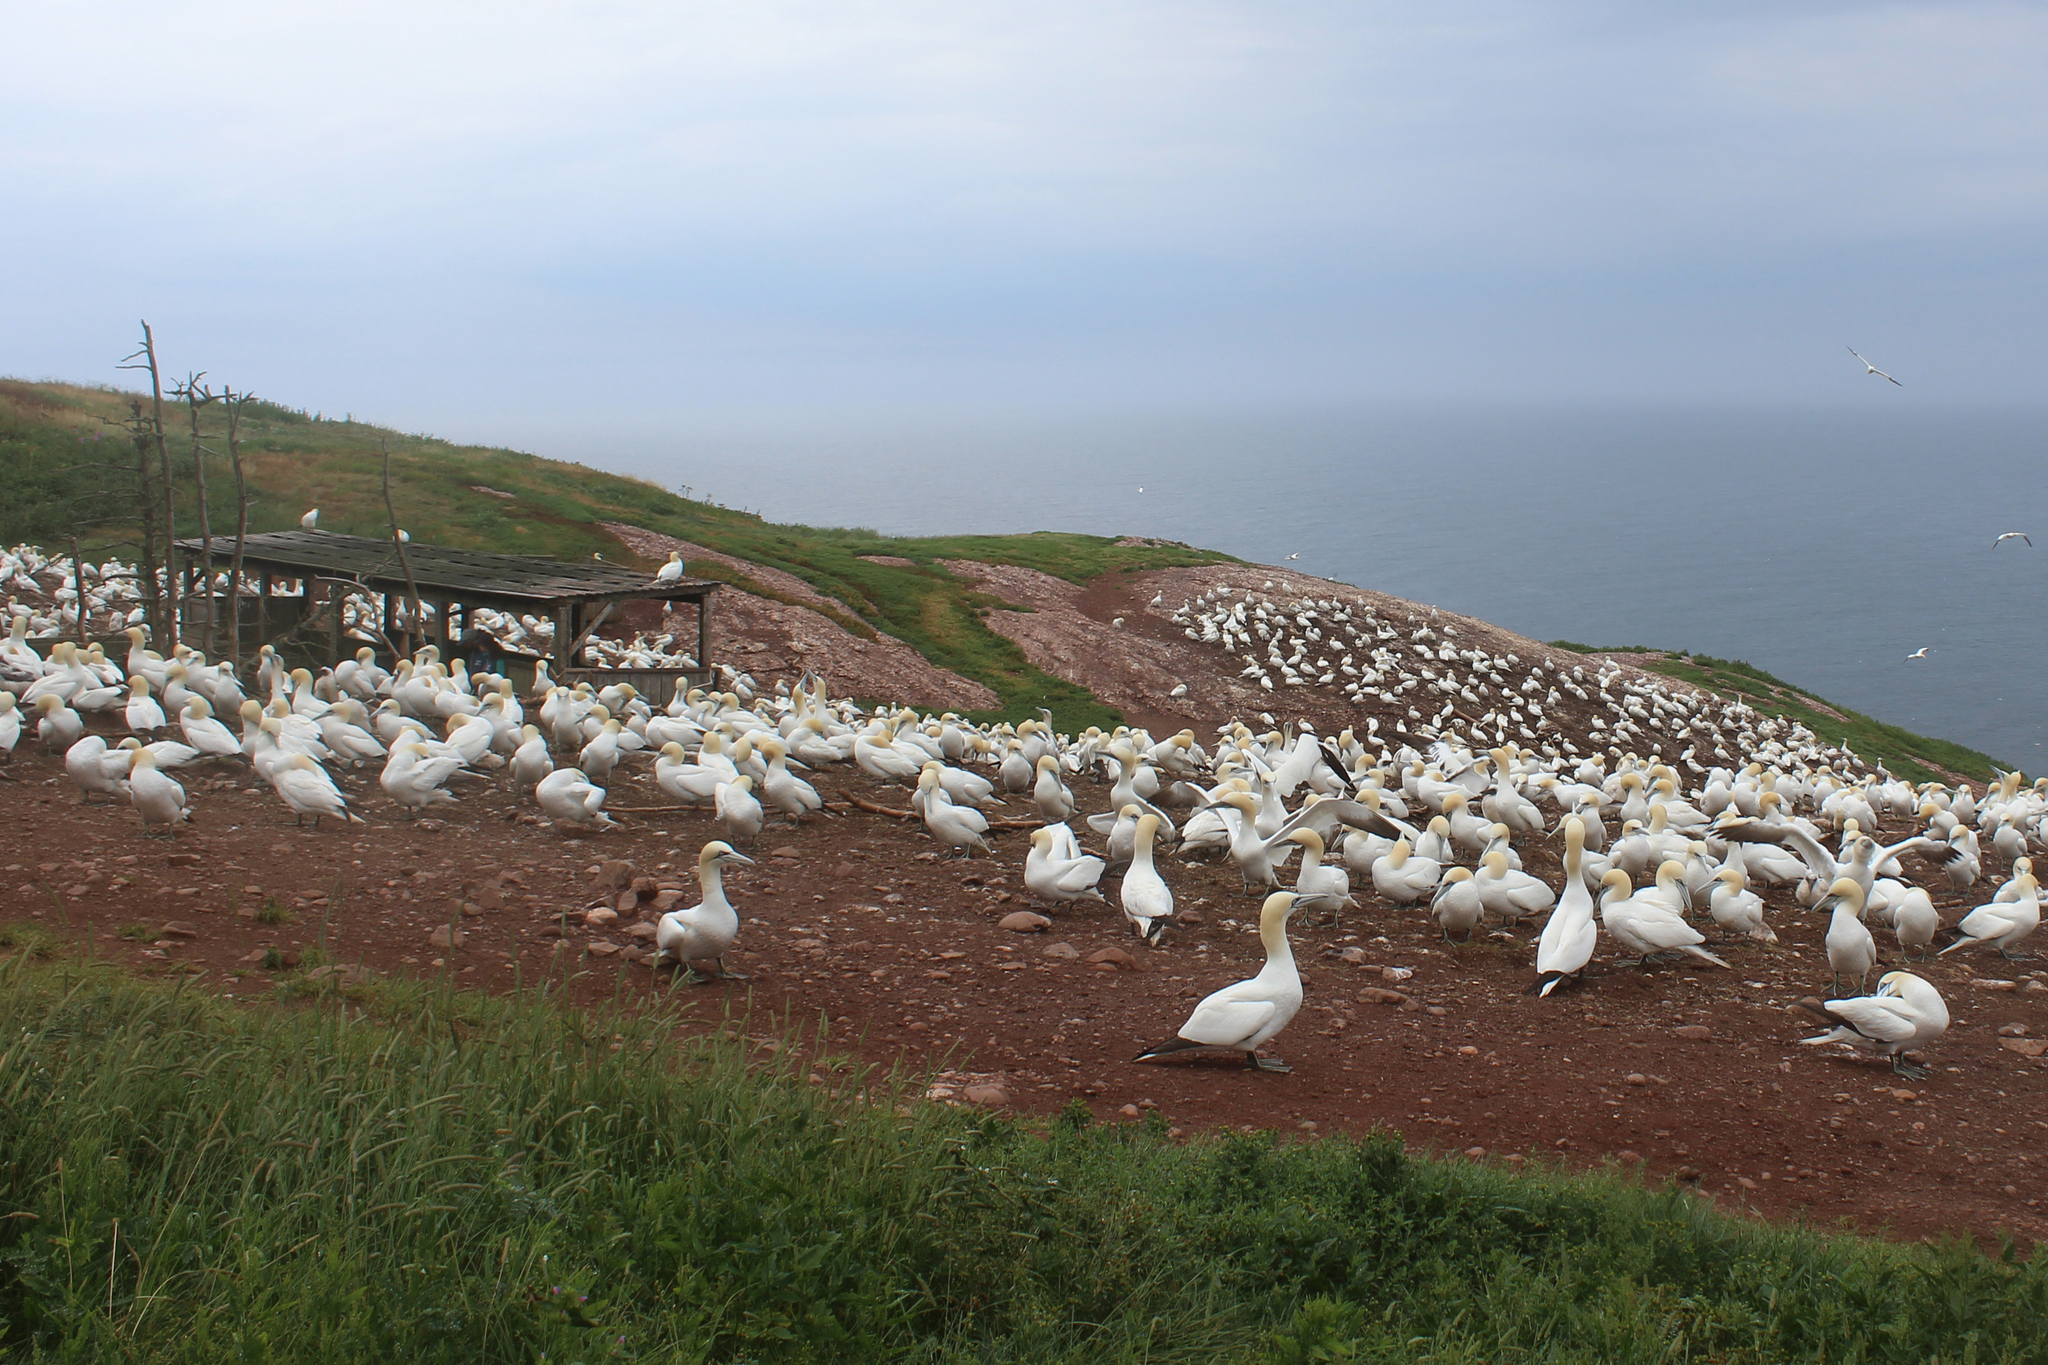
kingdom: Animalia
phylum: Chordata
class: Aves
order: Suliformes
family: Sulidae
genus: Morus
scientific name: Morus bassanus
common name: Northern gannet
